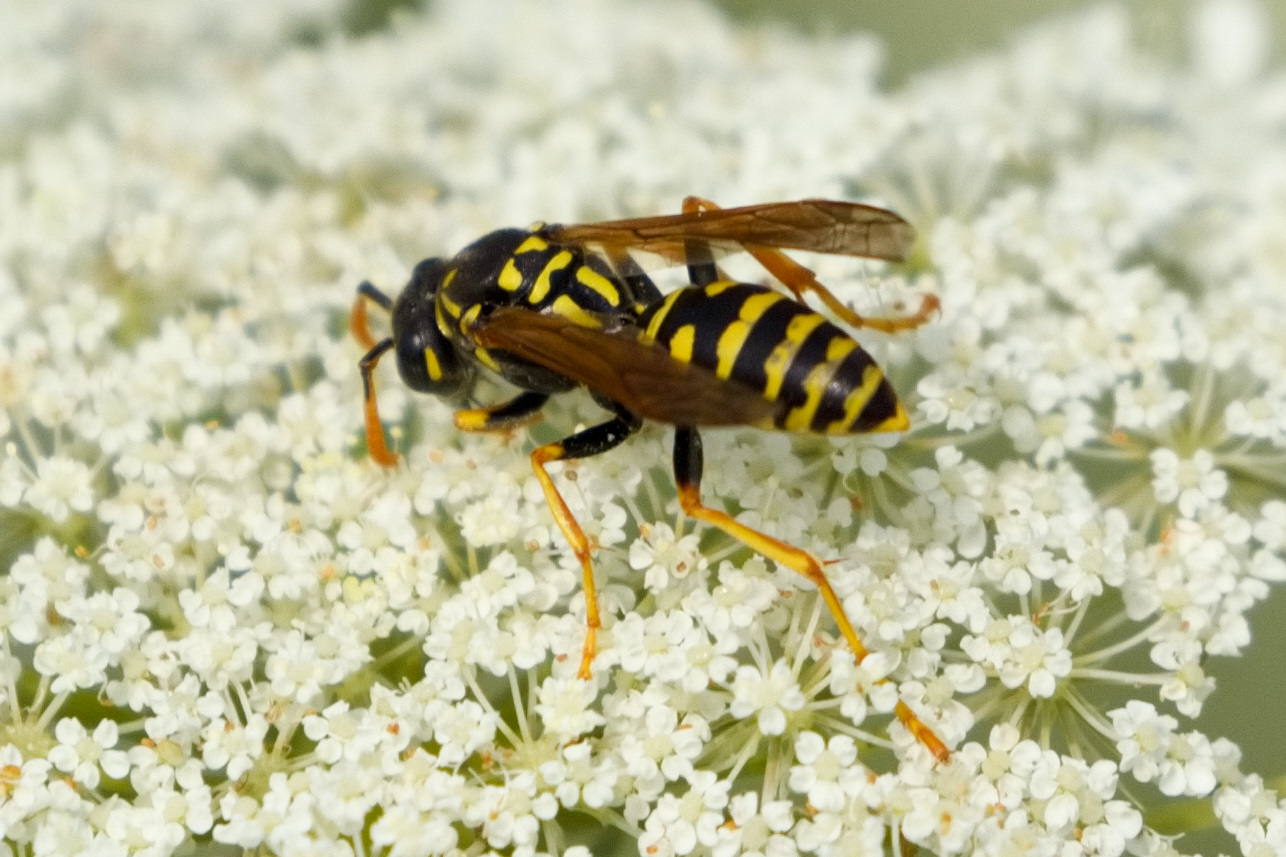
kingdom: Animalia
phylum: Arthropoda
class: Insecta
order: Hymenoptera
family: Eumenidae
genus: Polistes
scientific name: Polistes dominula
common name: Paper wasp
